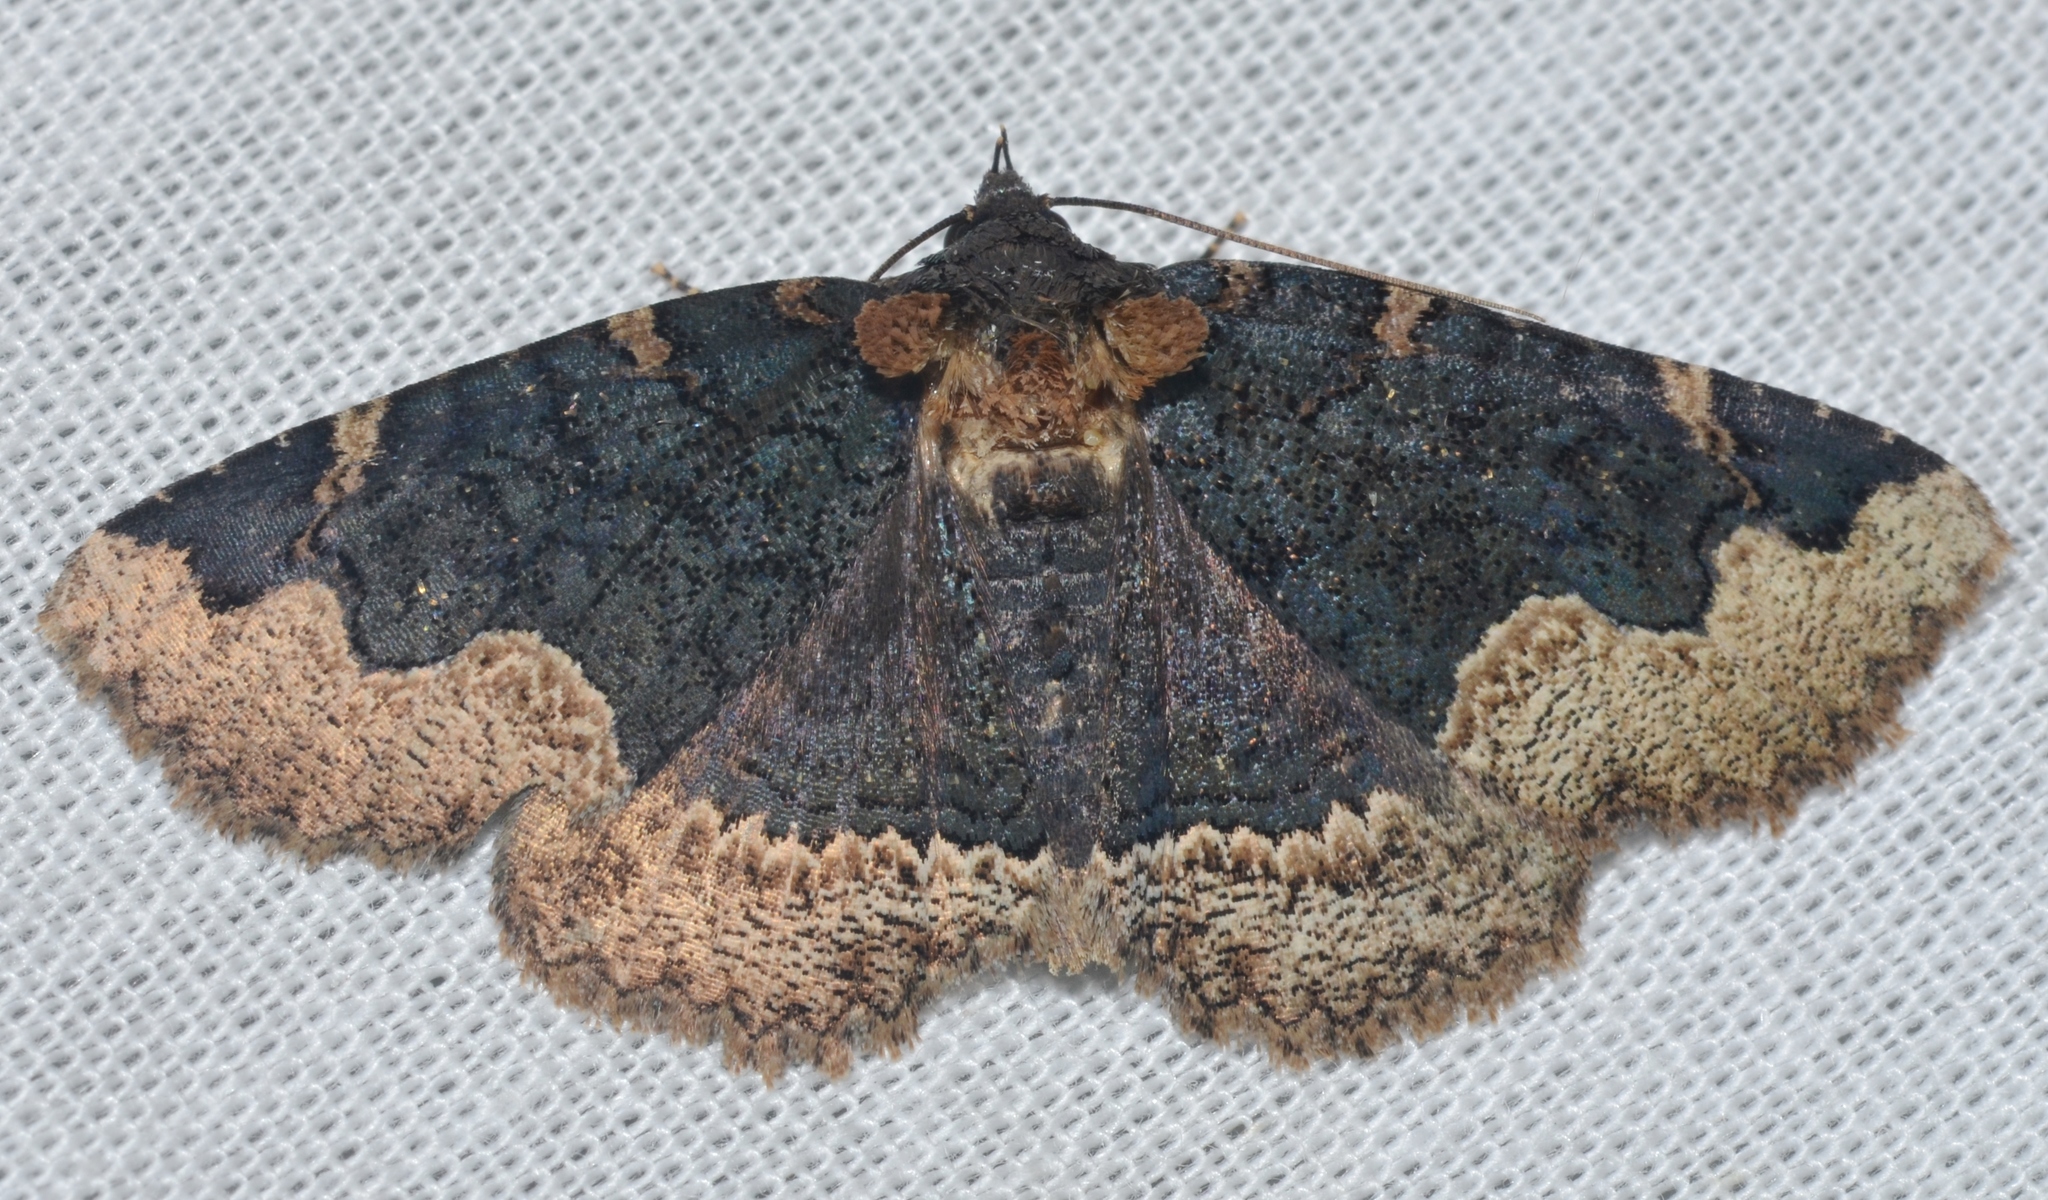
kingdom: Animalia
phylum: Arthropoda
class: Insecta
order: Lepidoptera
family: Erebidae
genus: Zale
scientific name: Zale horrida
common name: Horrid zale moth
